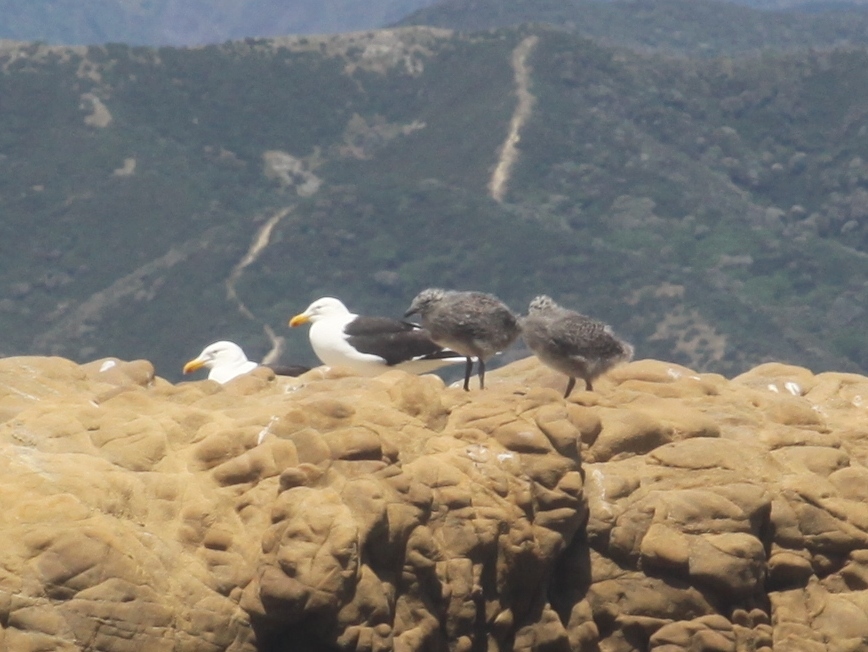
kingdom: Animalia
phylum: Chordata
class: Aves
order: Charadriiformes
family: Laridae
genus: Larus
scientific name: Larus dominicanus
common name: Kelp gull
